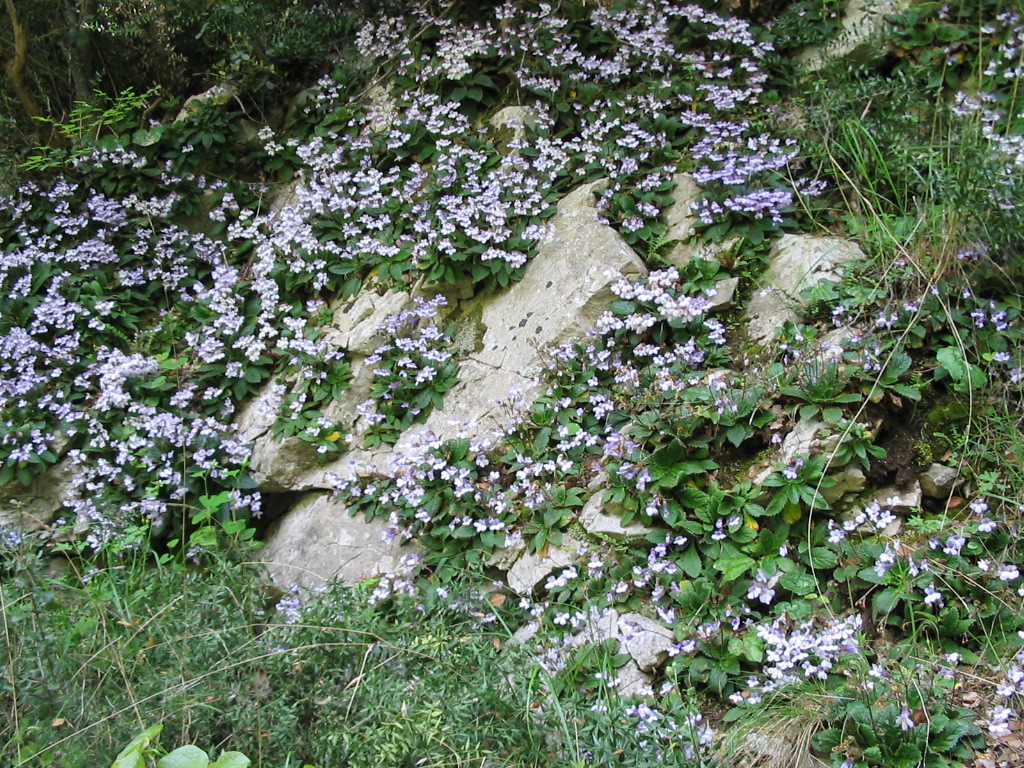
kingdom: Plantae
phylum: Tracheophyta
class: Magnoliopsida
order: Lamiales
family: Gesneriaceae
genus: Haberlea
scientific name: Haberlea rhodopensis
